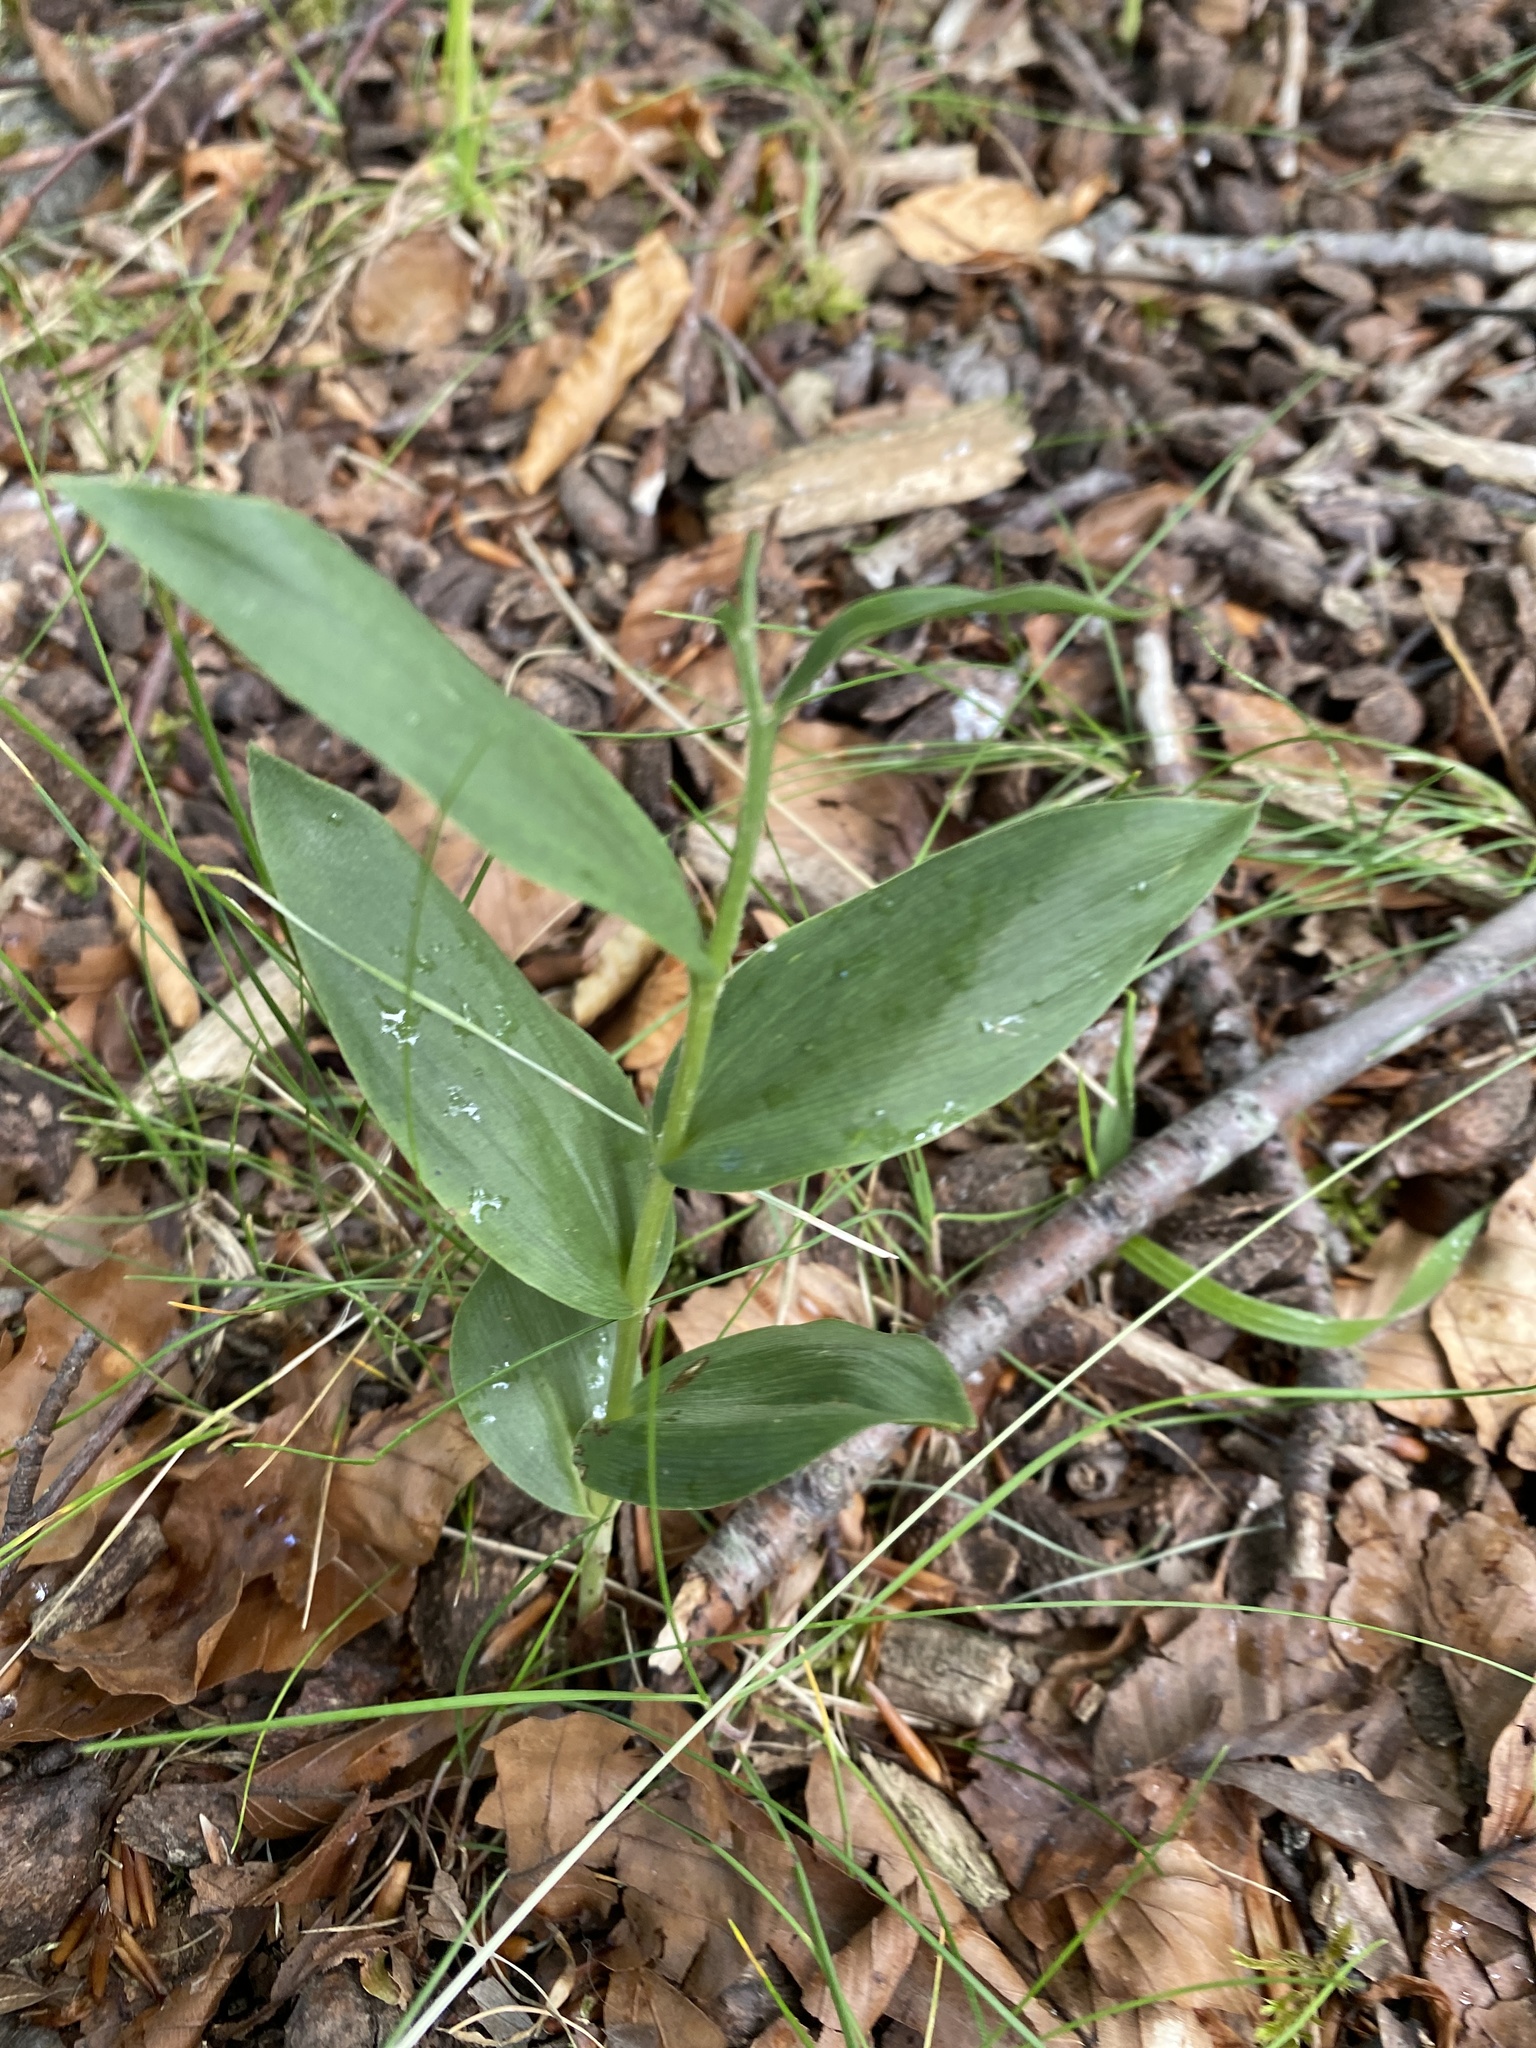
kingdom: Plantae
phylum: Tracheophyta
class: Liliopsida
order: Asparagales
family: Orchidaceae
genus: Cephalanthera
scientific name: Cephalanthera damasonium
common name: White helleborine
